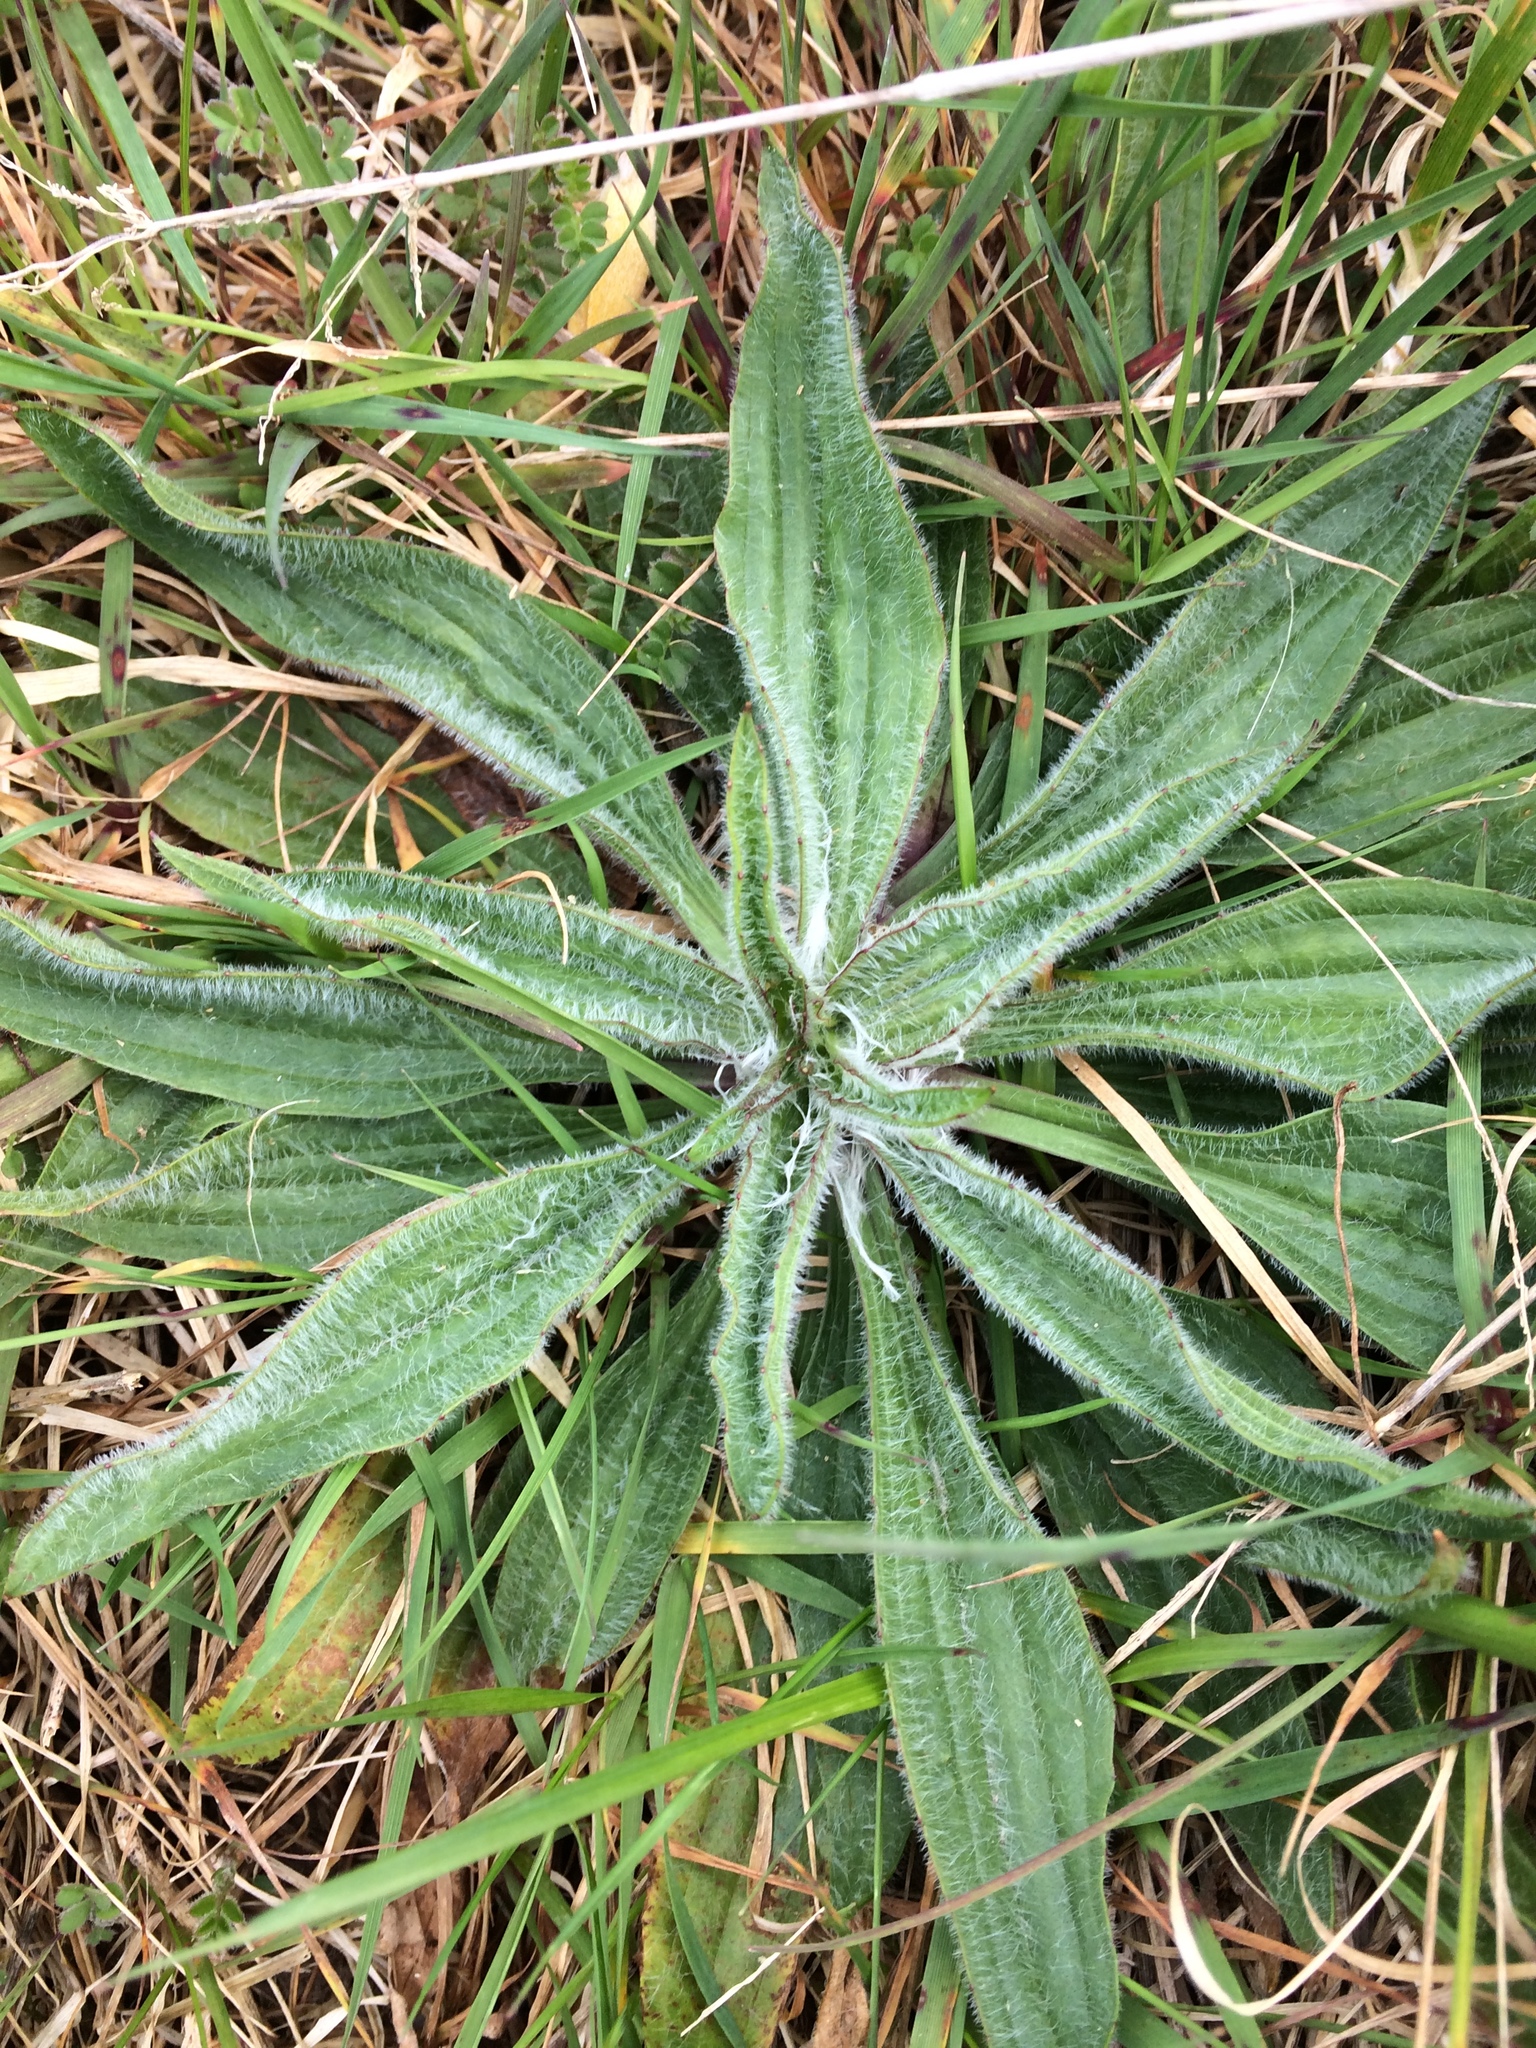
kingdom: Plantae
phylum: Tracheophyta
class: Magnoliopsida
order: Lamiales
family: Plantaginaceae
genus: Plantago
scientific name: Plantago lanceolata
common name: Ribwort plantain
